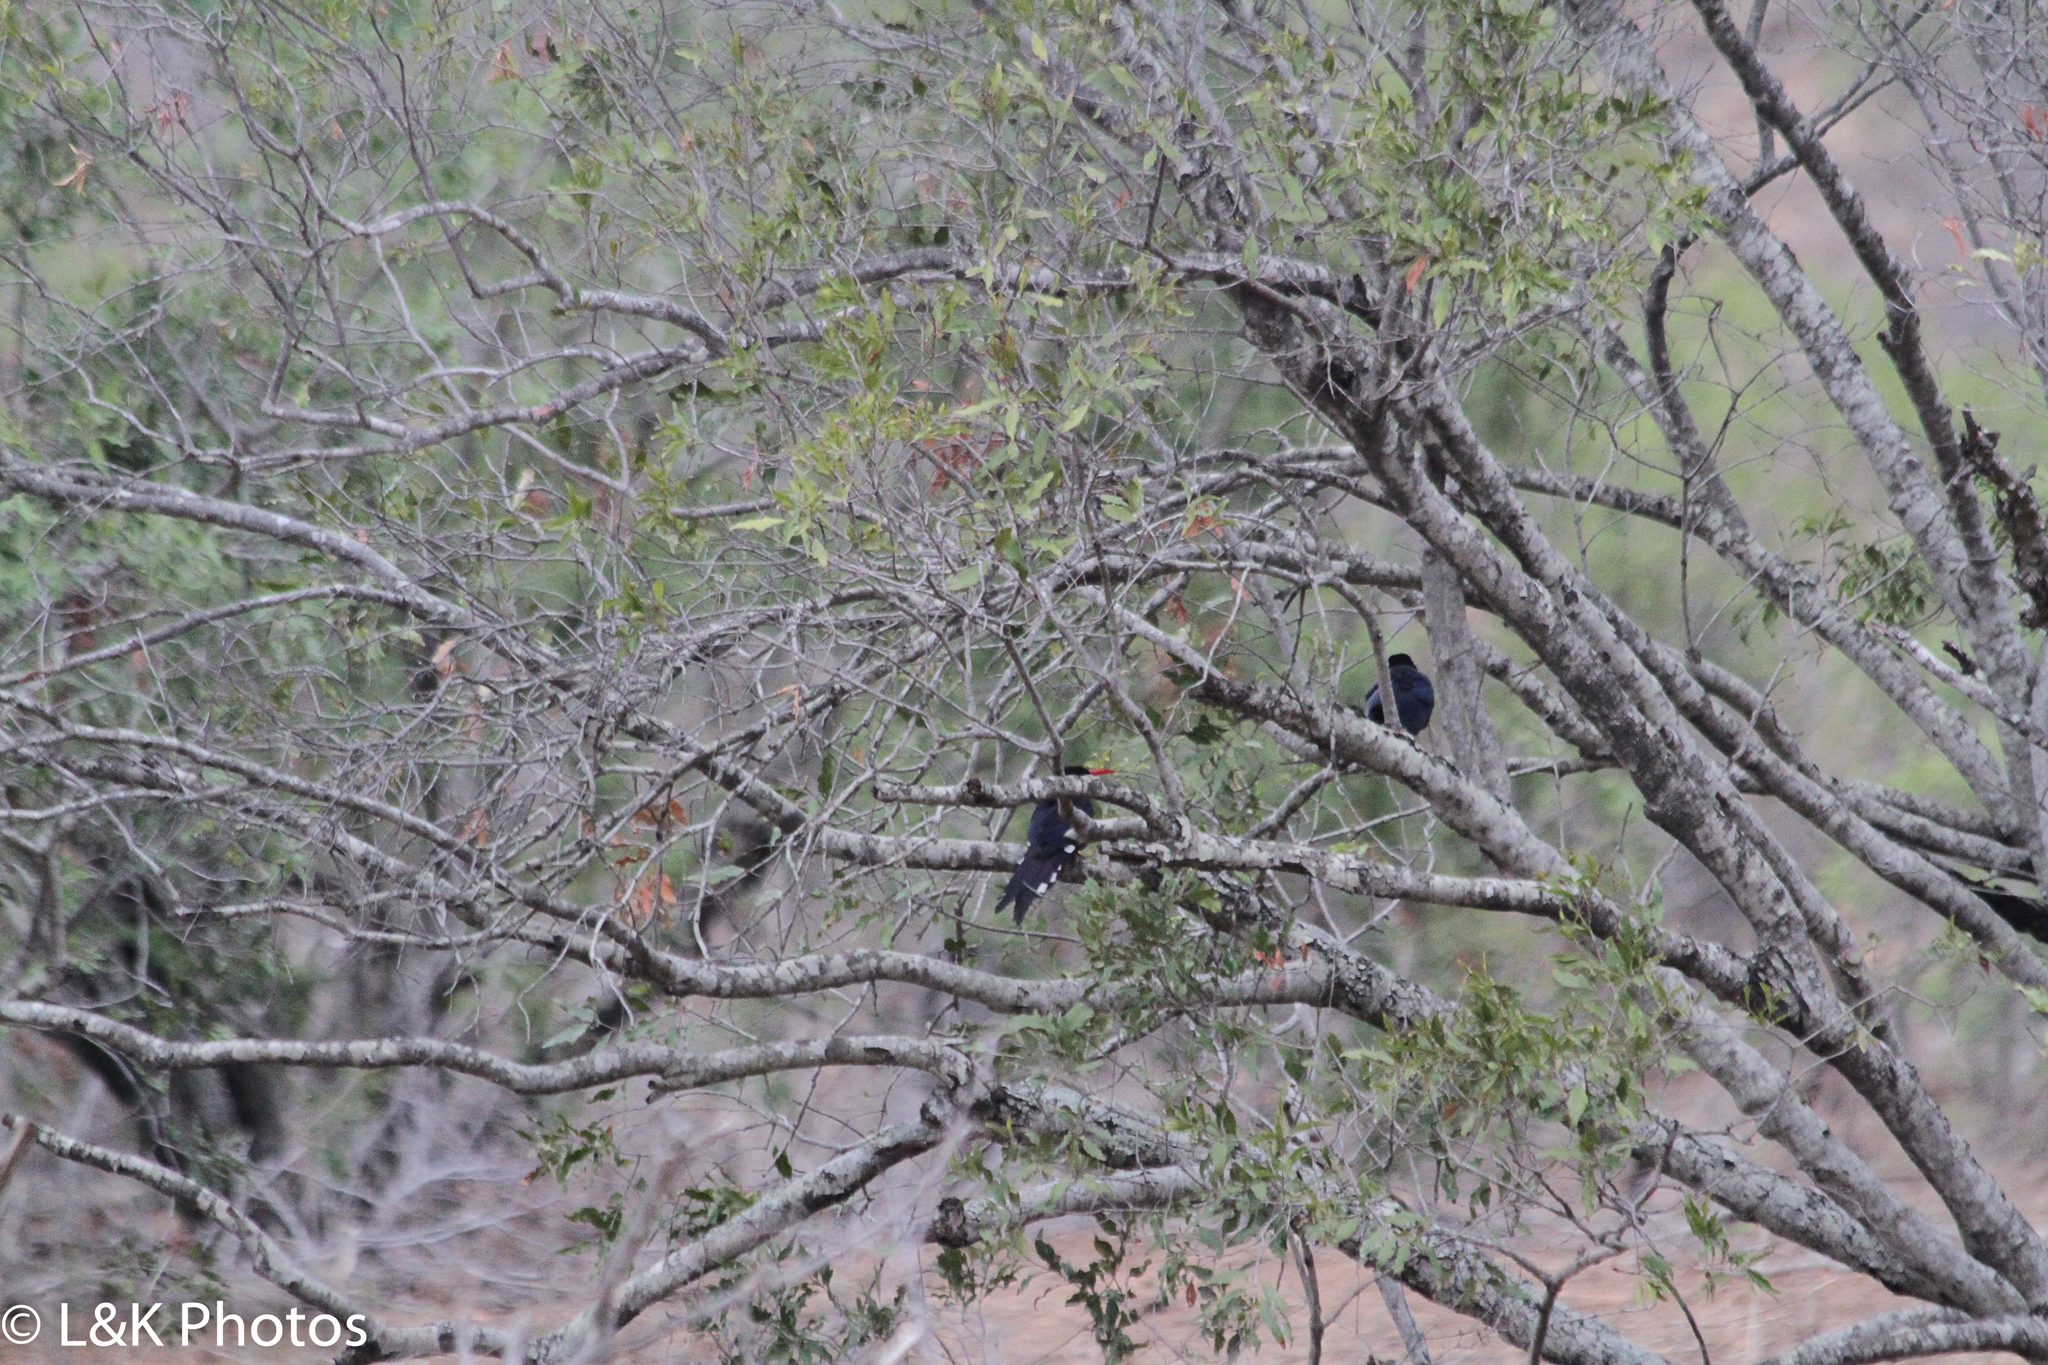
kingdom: Animalia
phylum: Chordata
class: Aves
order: Bucerotiformes
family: Phoeniculidae
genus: Phoeniculus
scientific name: Phoeniculus purpureus
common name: Green woodhoopoe
